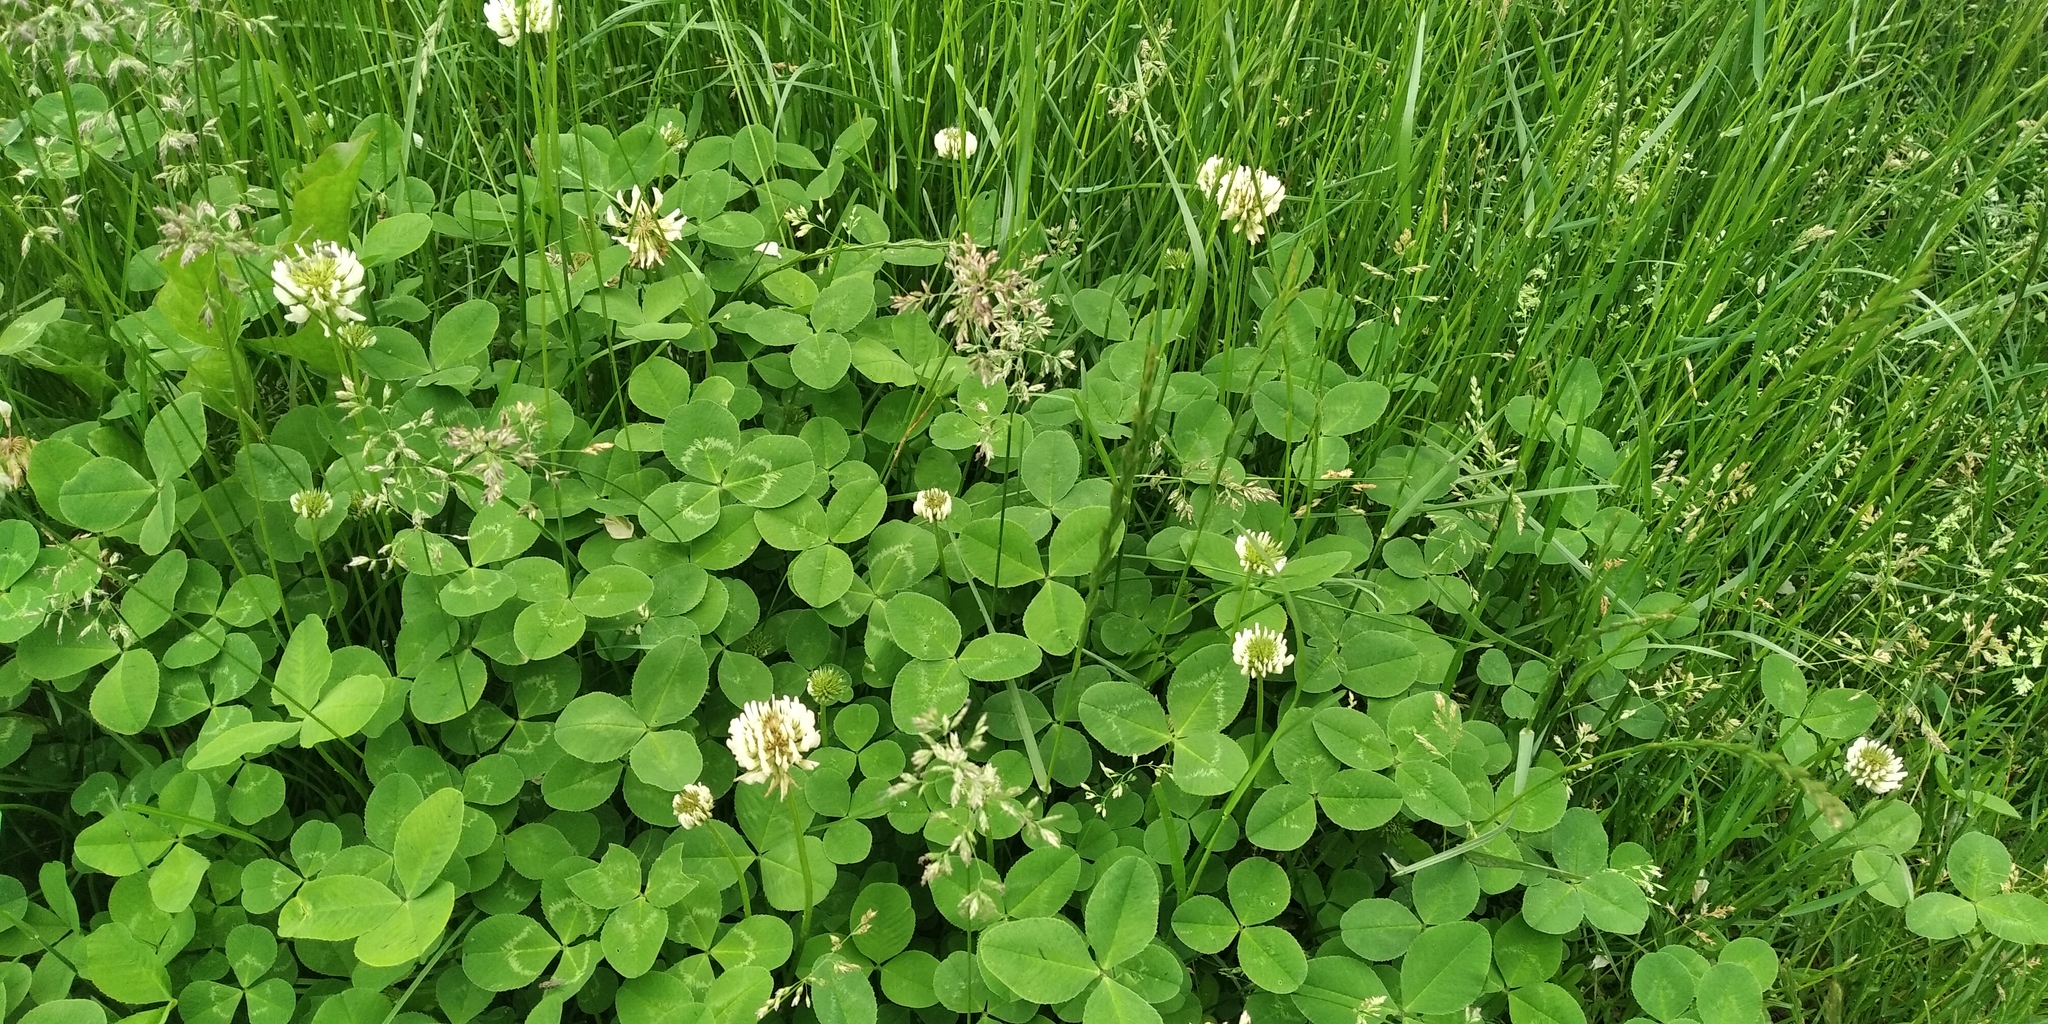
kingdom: Plantae
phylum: Tracheophyta
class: Magnoliopsida
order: Fabales
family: Fabaceae
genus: Trifolium
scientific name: Trifolium repens
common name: White clover
